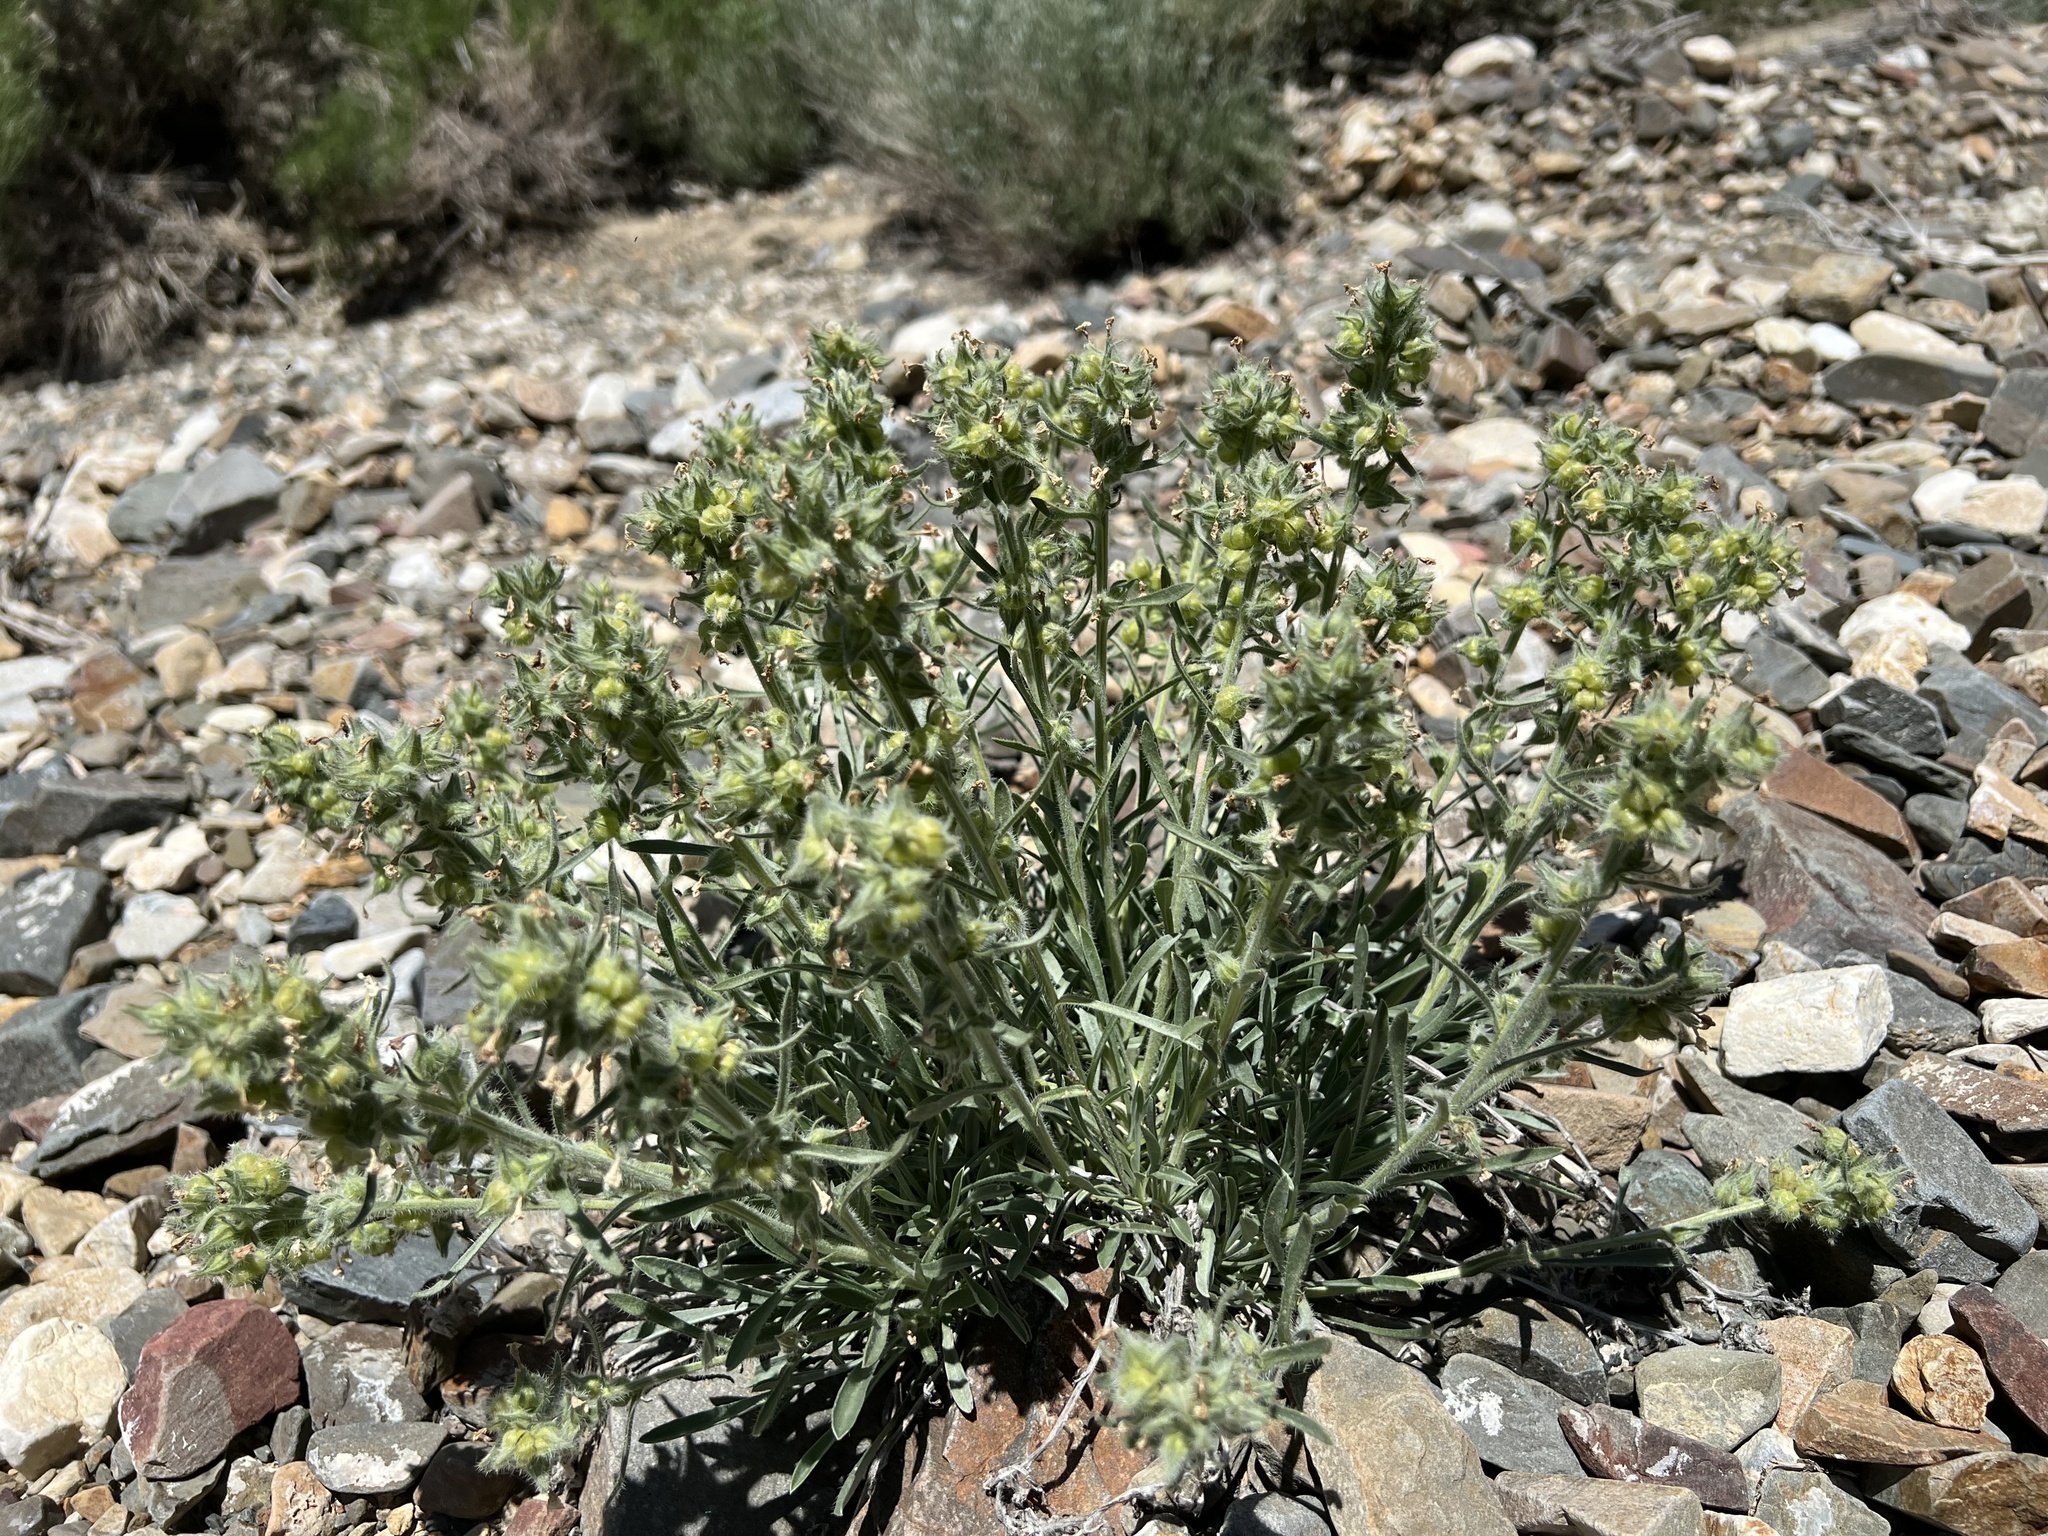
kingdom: Plantae
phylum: Tracheophyta
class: Magnoliopsida
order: Boraginales
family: Boraginaceae
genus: Oreocarya
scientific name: Oreocarya flavoculata
